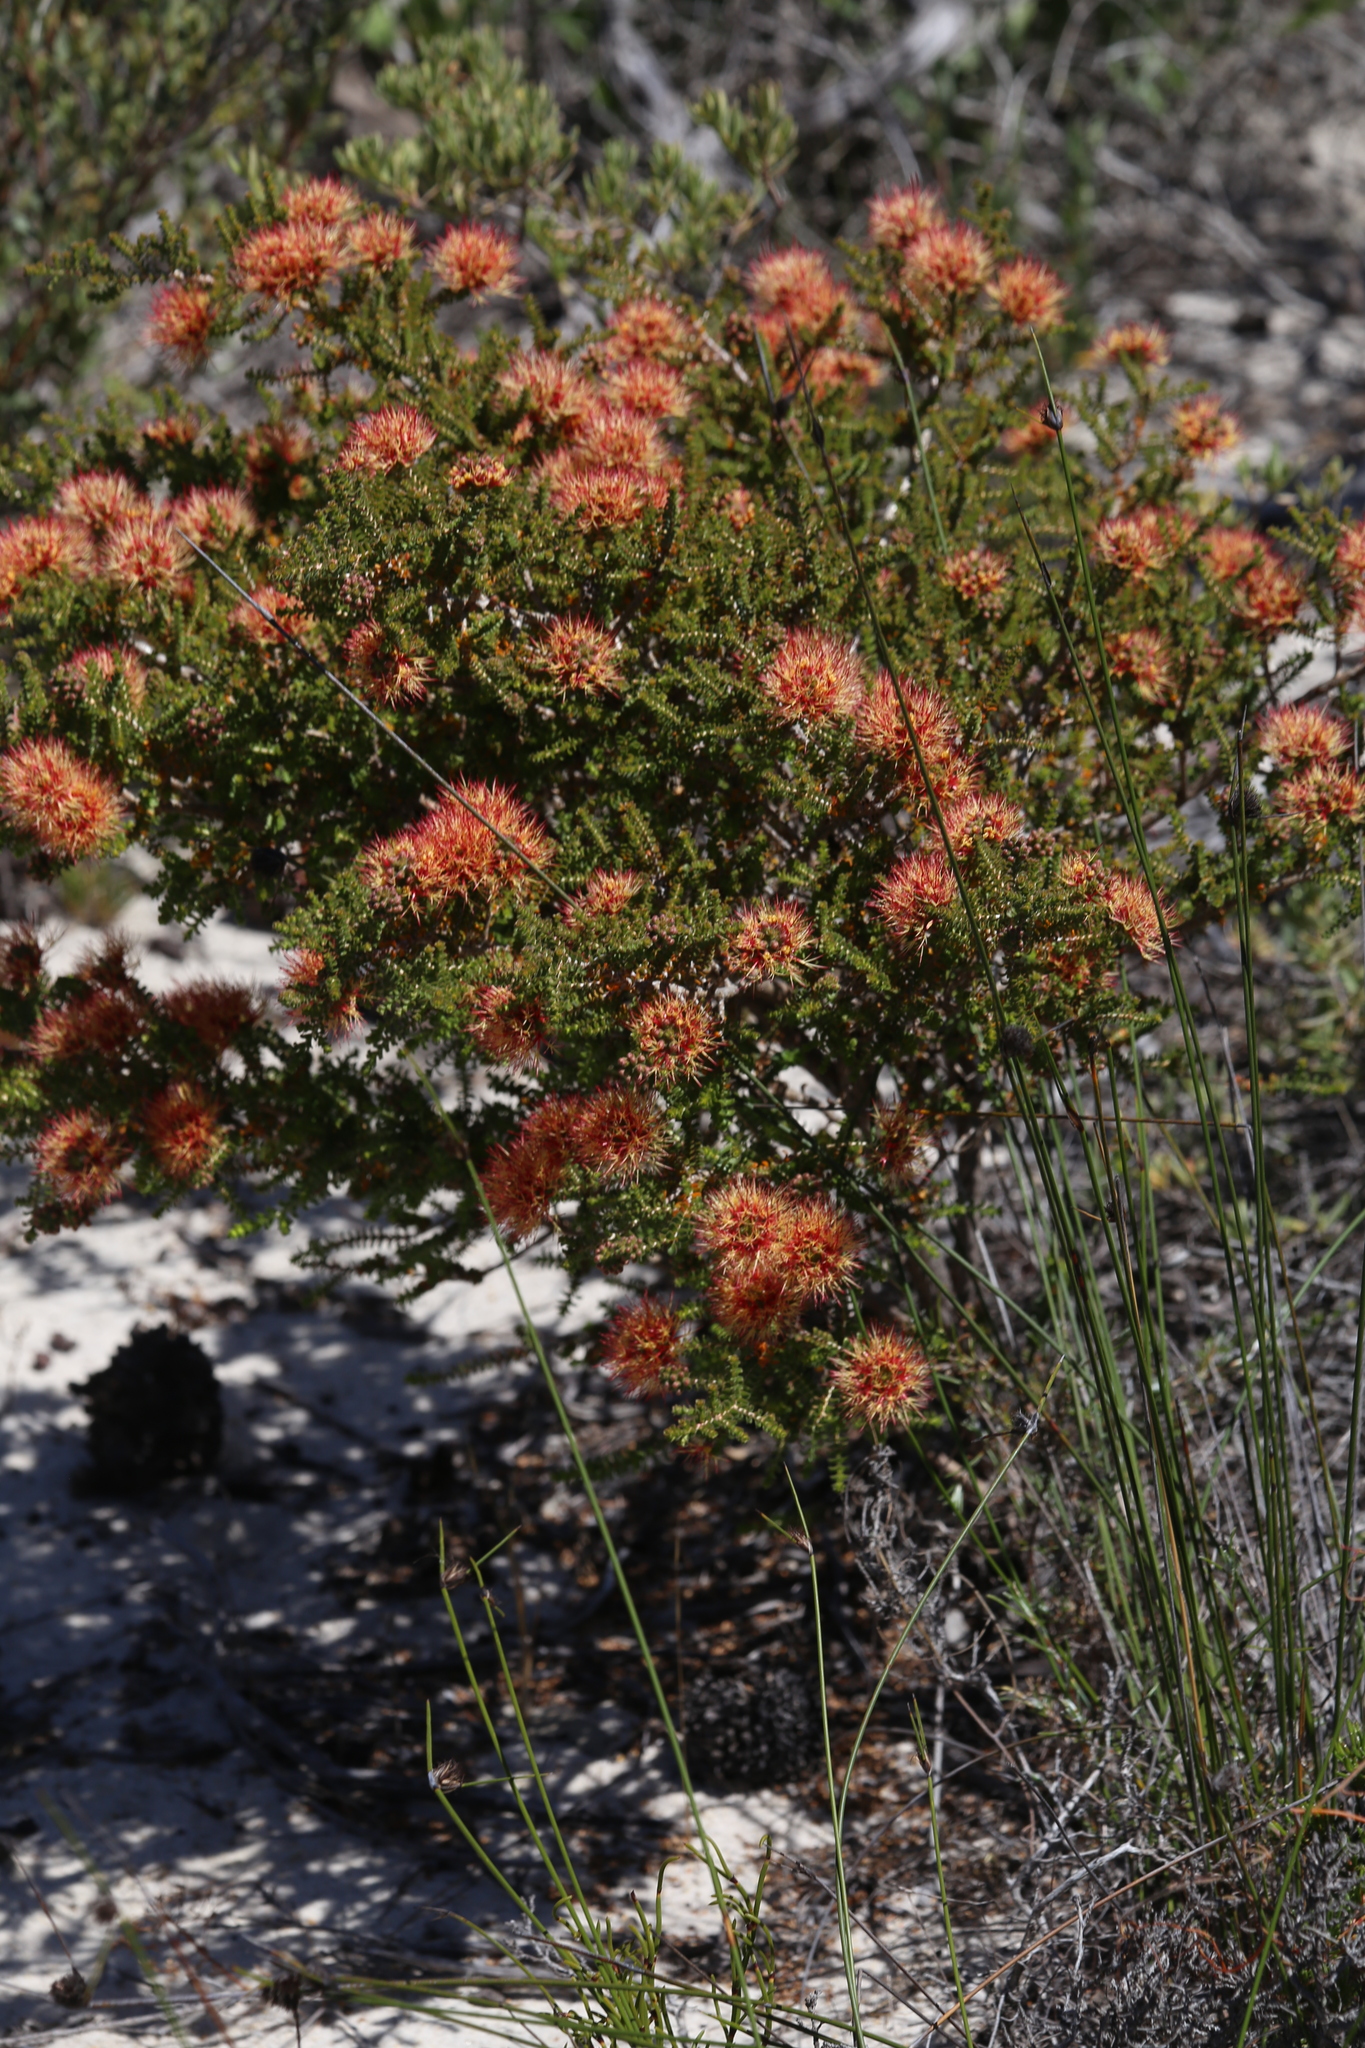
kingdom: Plantae
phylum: Tracheophyta
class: Magnoliopsida
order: Myrtales
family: Myrtaceae
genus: Melaleuca
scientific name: Melaleuca variegata
